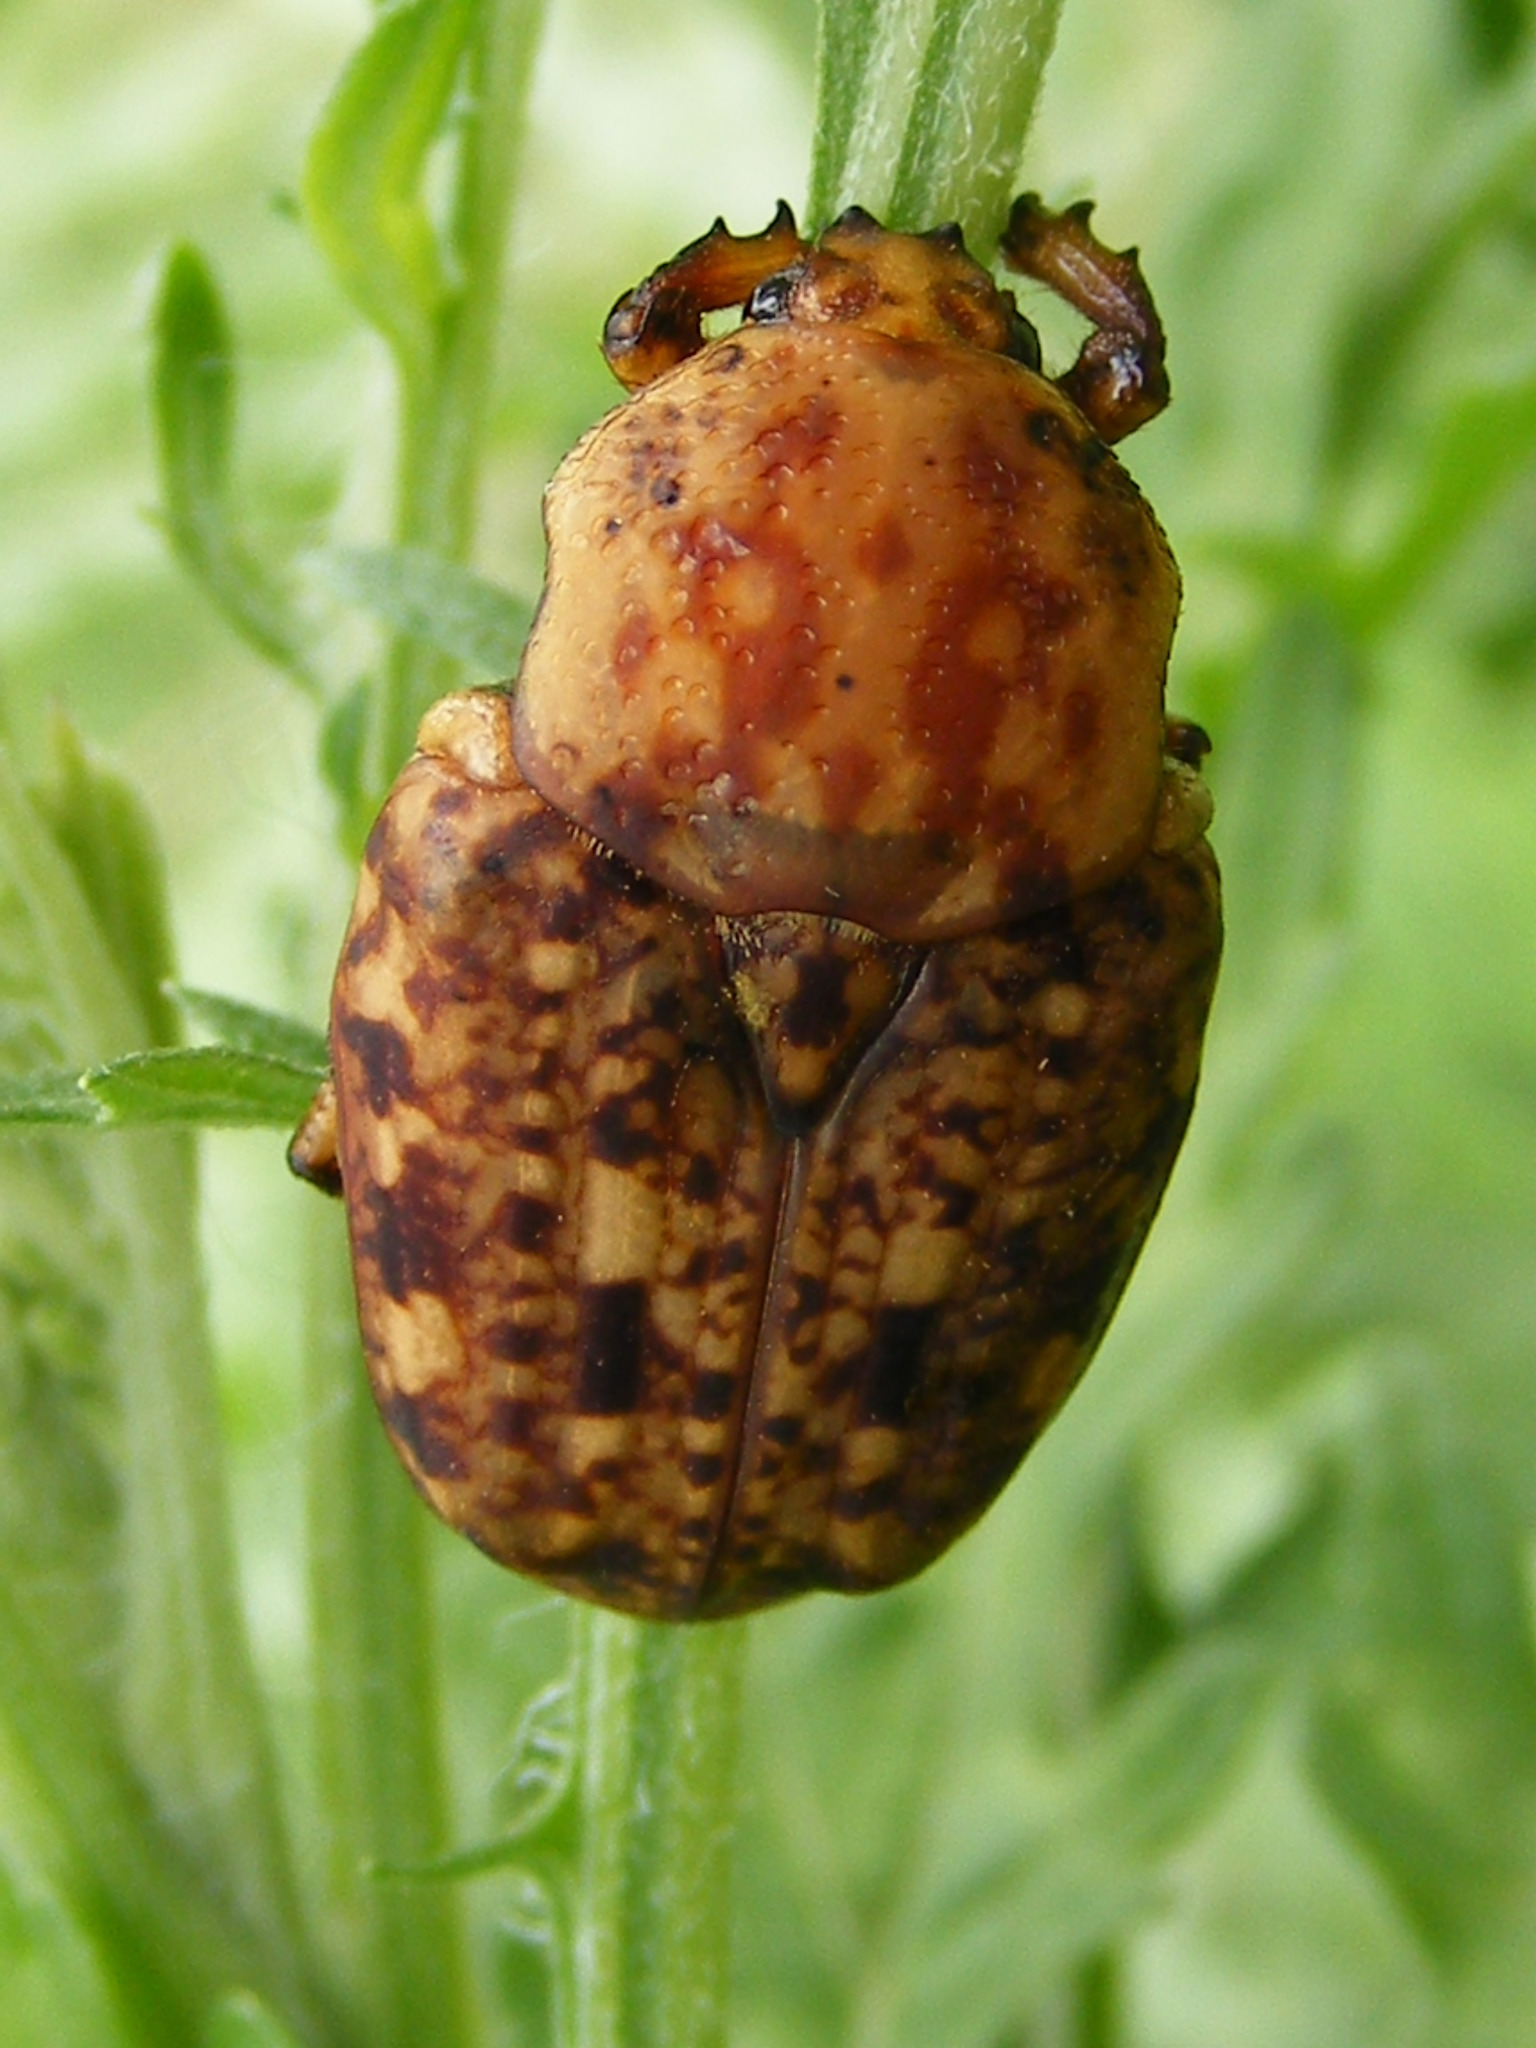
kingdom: Animalia
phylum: Arthropoda
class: Insecta
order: Coleoptera
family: Scarabaeidae
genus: Porphyronota
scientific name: Porphyronota hebraea
